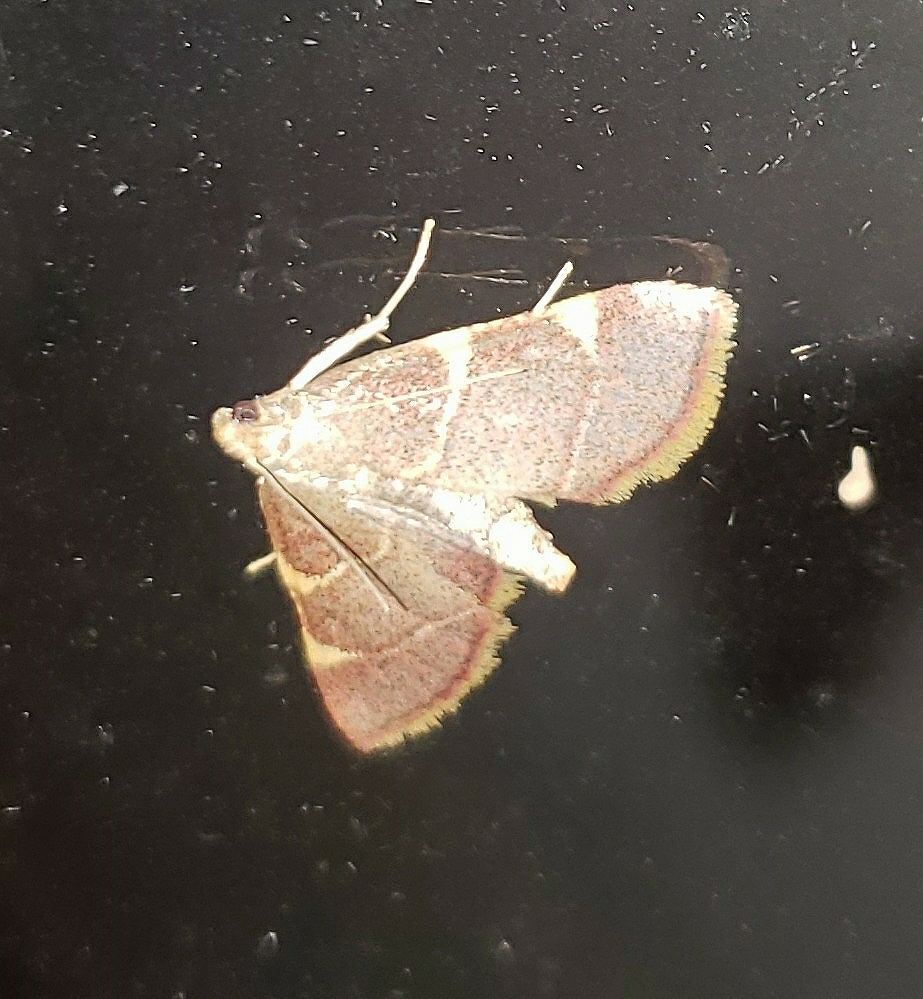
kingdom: Animalia
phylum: Arthropoda
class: Insecta
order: Lepidoptera
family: Pyralidae
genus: Hypsopygia
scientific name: Hypsopygia olinalis
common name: Yellow-fringed dolichomia moth
